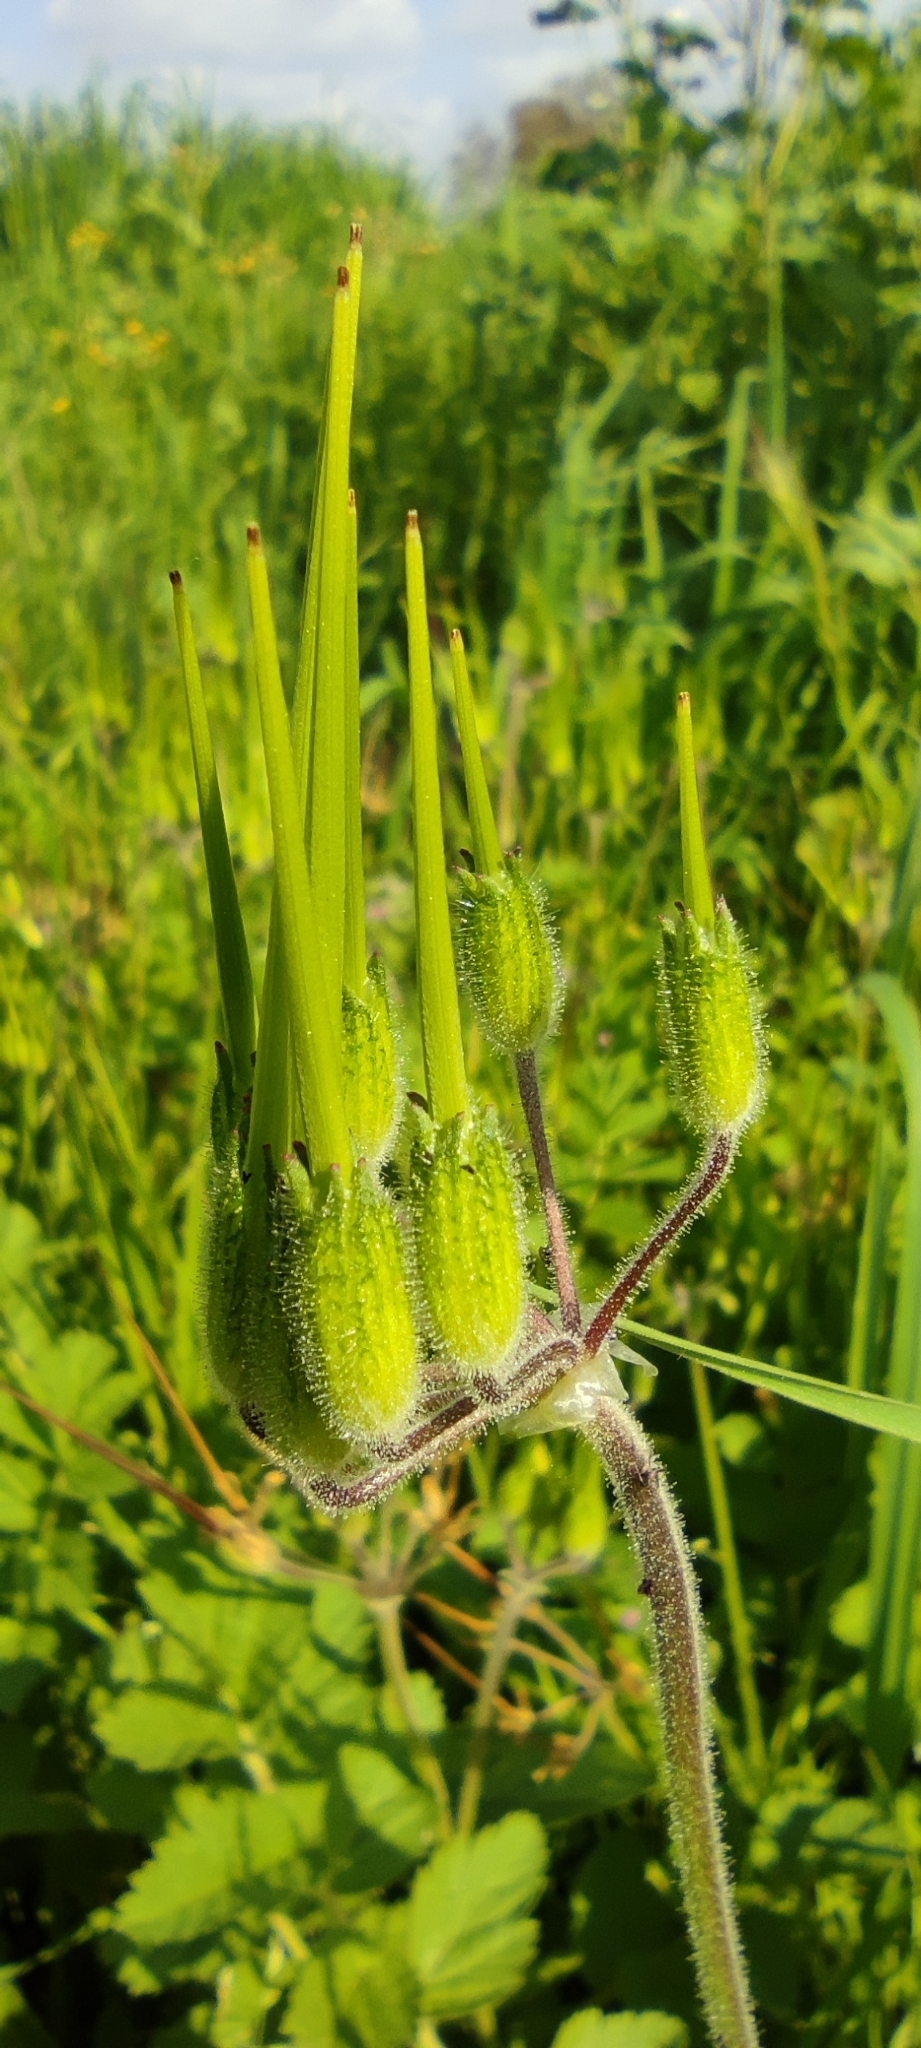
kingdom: Plantae
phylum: Tracheophyta
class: Magnoliopsida
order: Geraniales
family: Geraniaceae
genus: Erodium
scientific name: Erodium moschatum
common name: Musk stork's-bill
